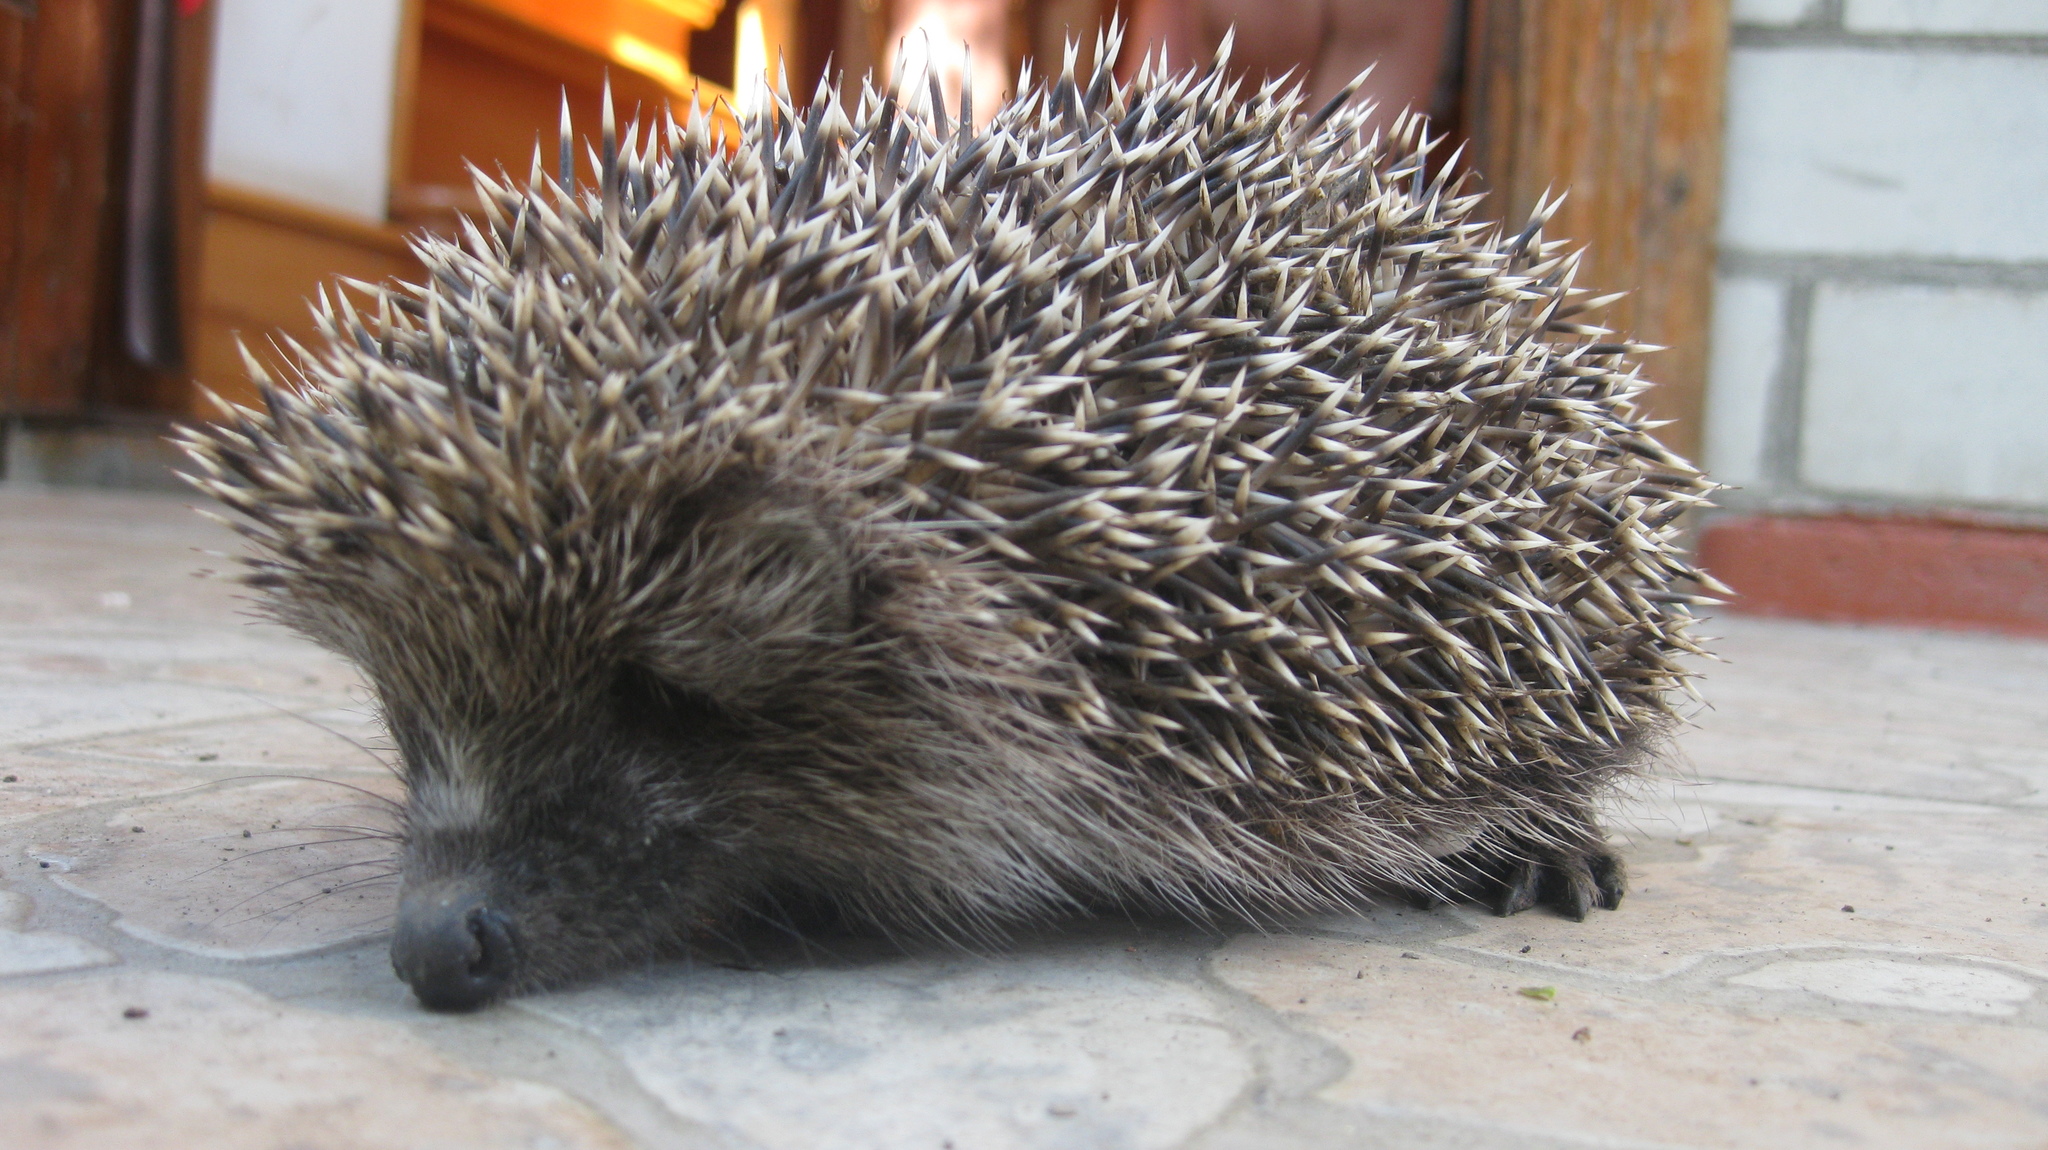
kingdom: Animalia
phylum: Chordata
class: Mammalia
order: Erinaceomorpha
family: Erinaceidae
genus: Erinaceus
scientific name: Erinaceus roumanicus
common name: Northern white-breasted hedgehog
